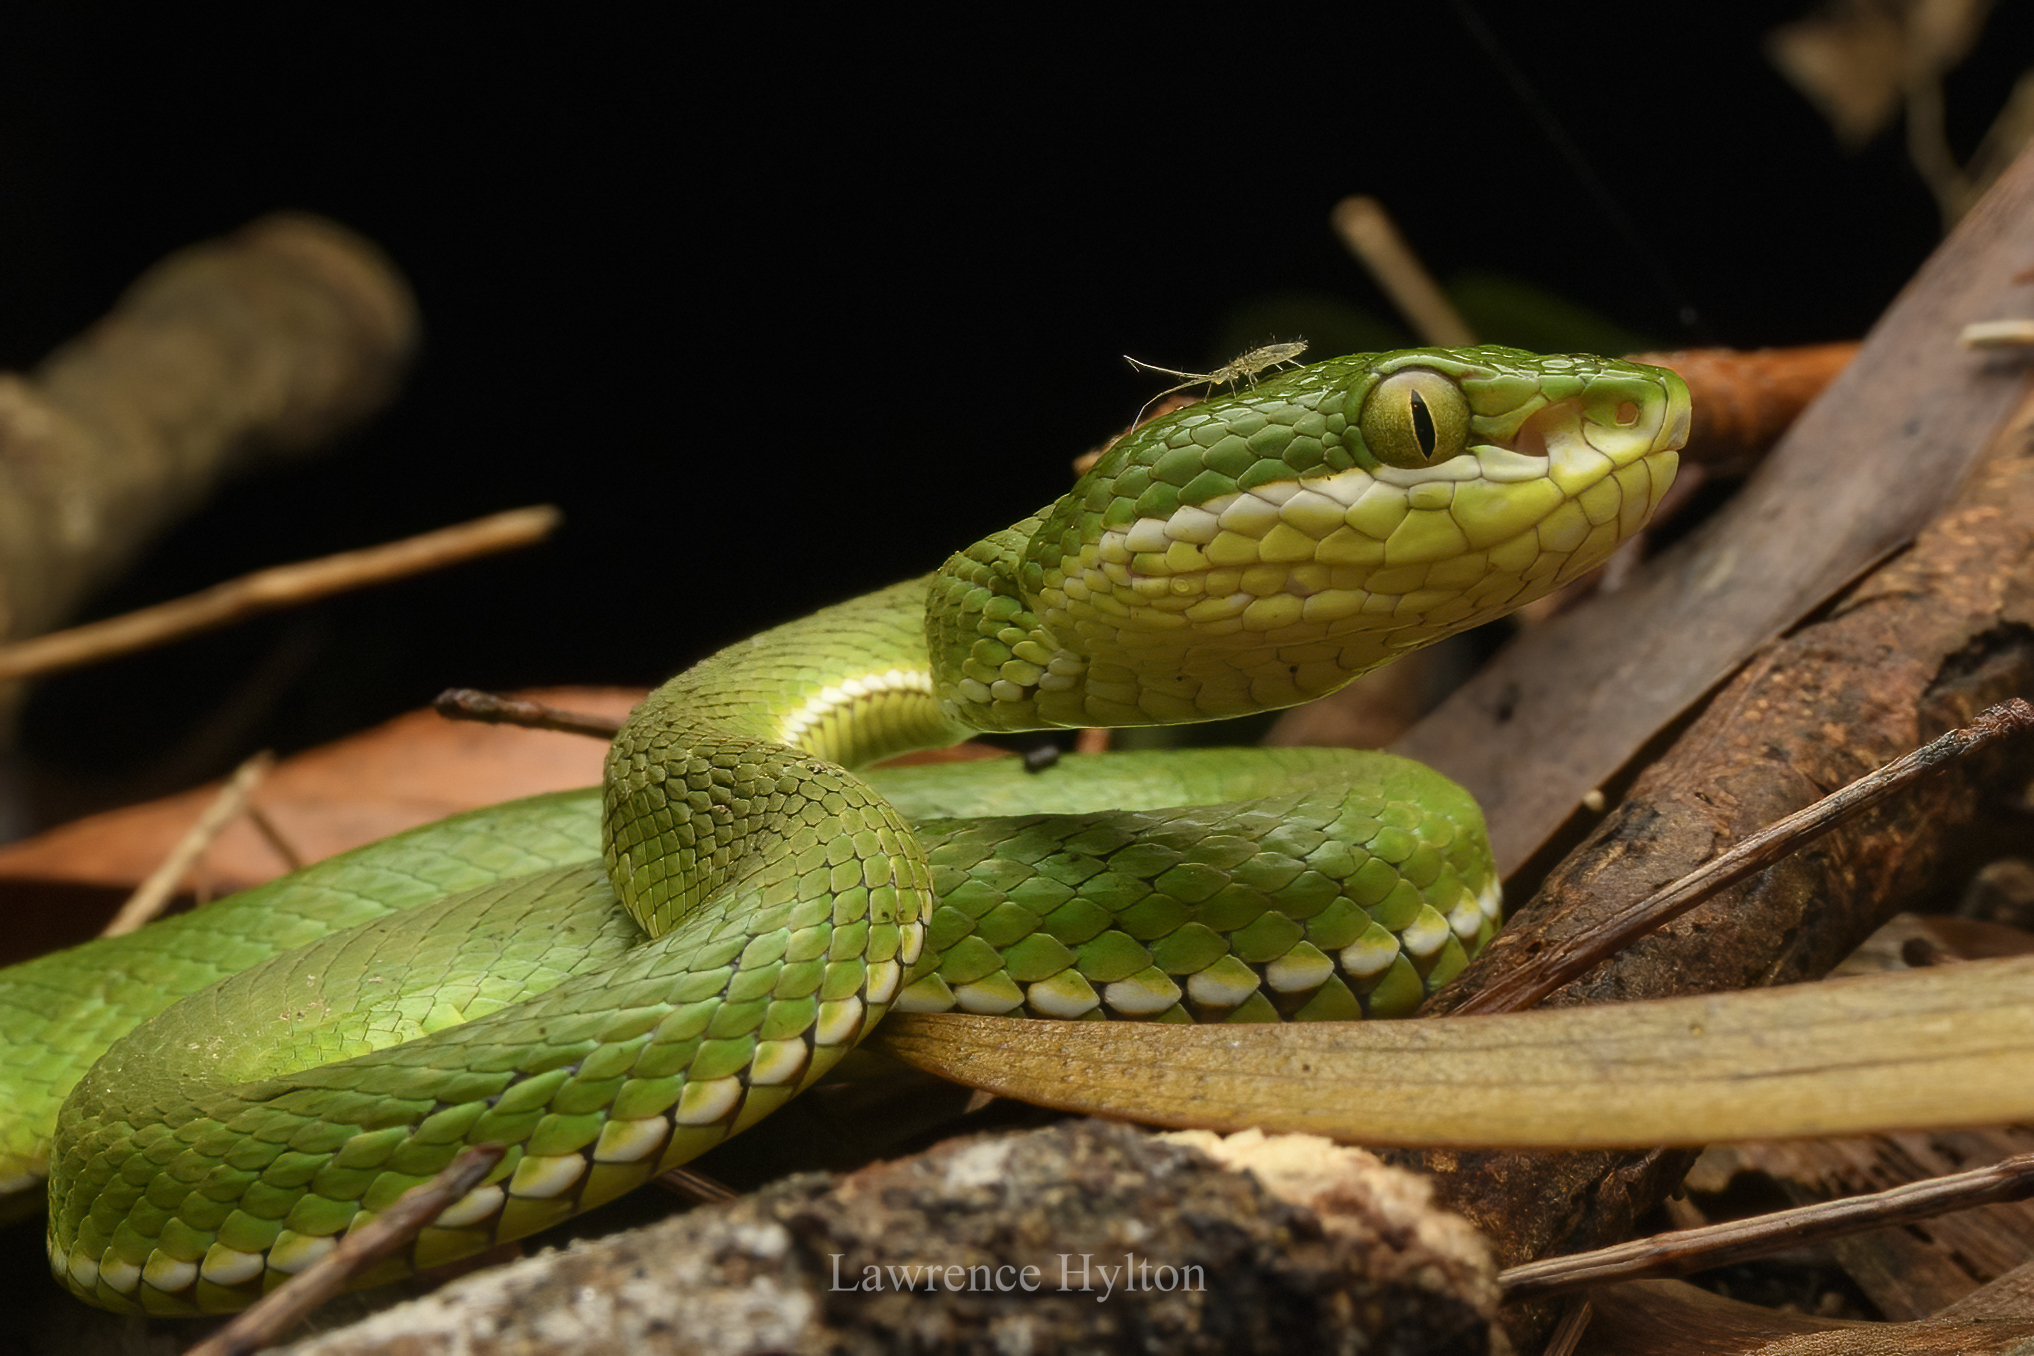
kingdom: Animalia
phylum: Chordata
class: Squamata
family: Viperidae
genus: Trimeresurus
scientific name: Trimeresurus albolabris
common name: White-lipped pitviper
